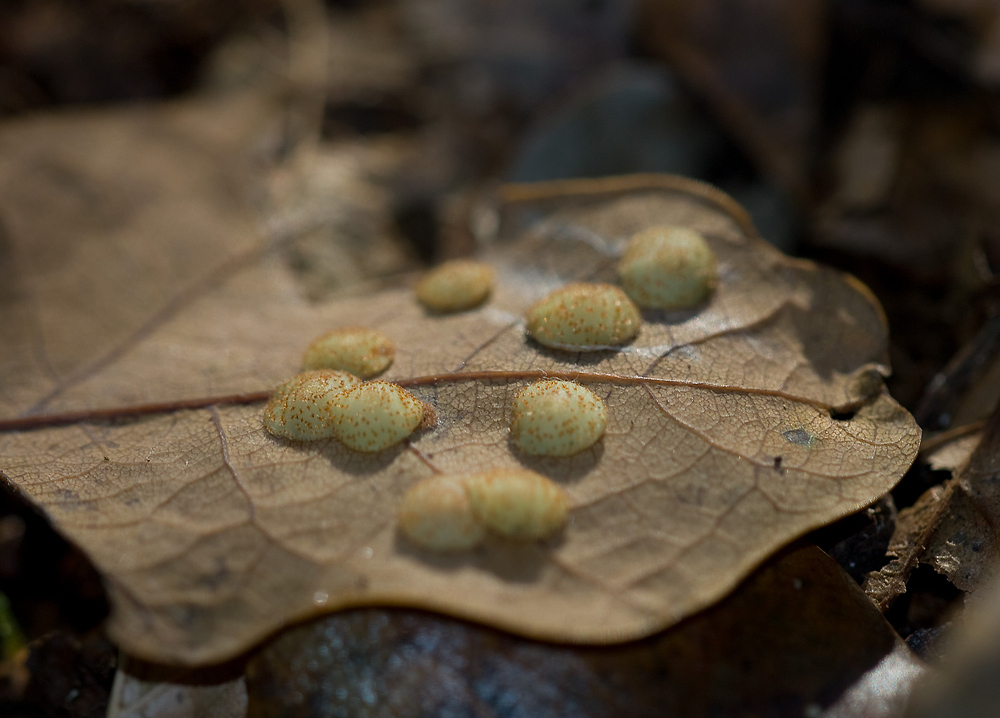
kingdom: Animalia
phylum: Arthropoda
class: Insecta
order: Hymenoptera
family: Cynipidae
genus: Neuroterus
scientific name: Neuroterus quercusbaccarum
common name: Common spangle gall
